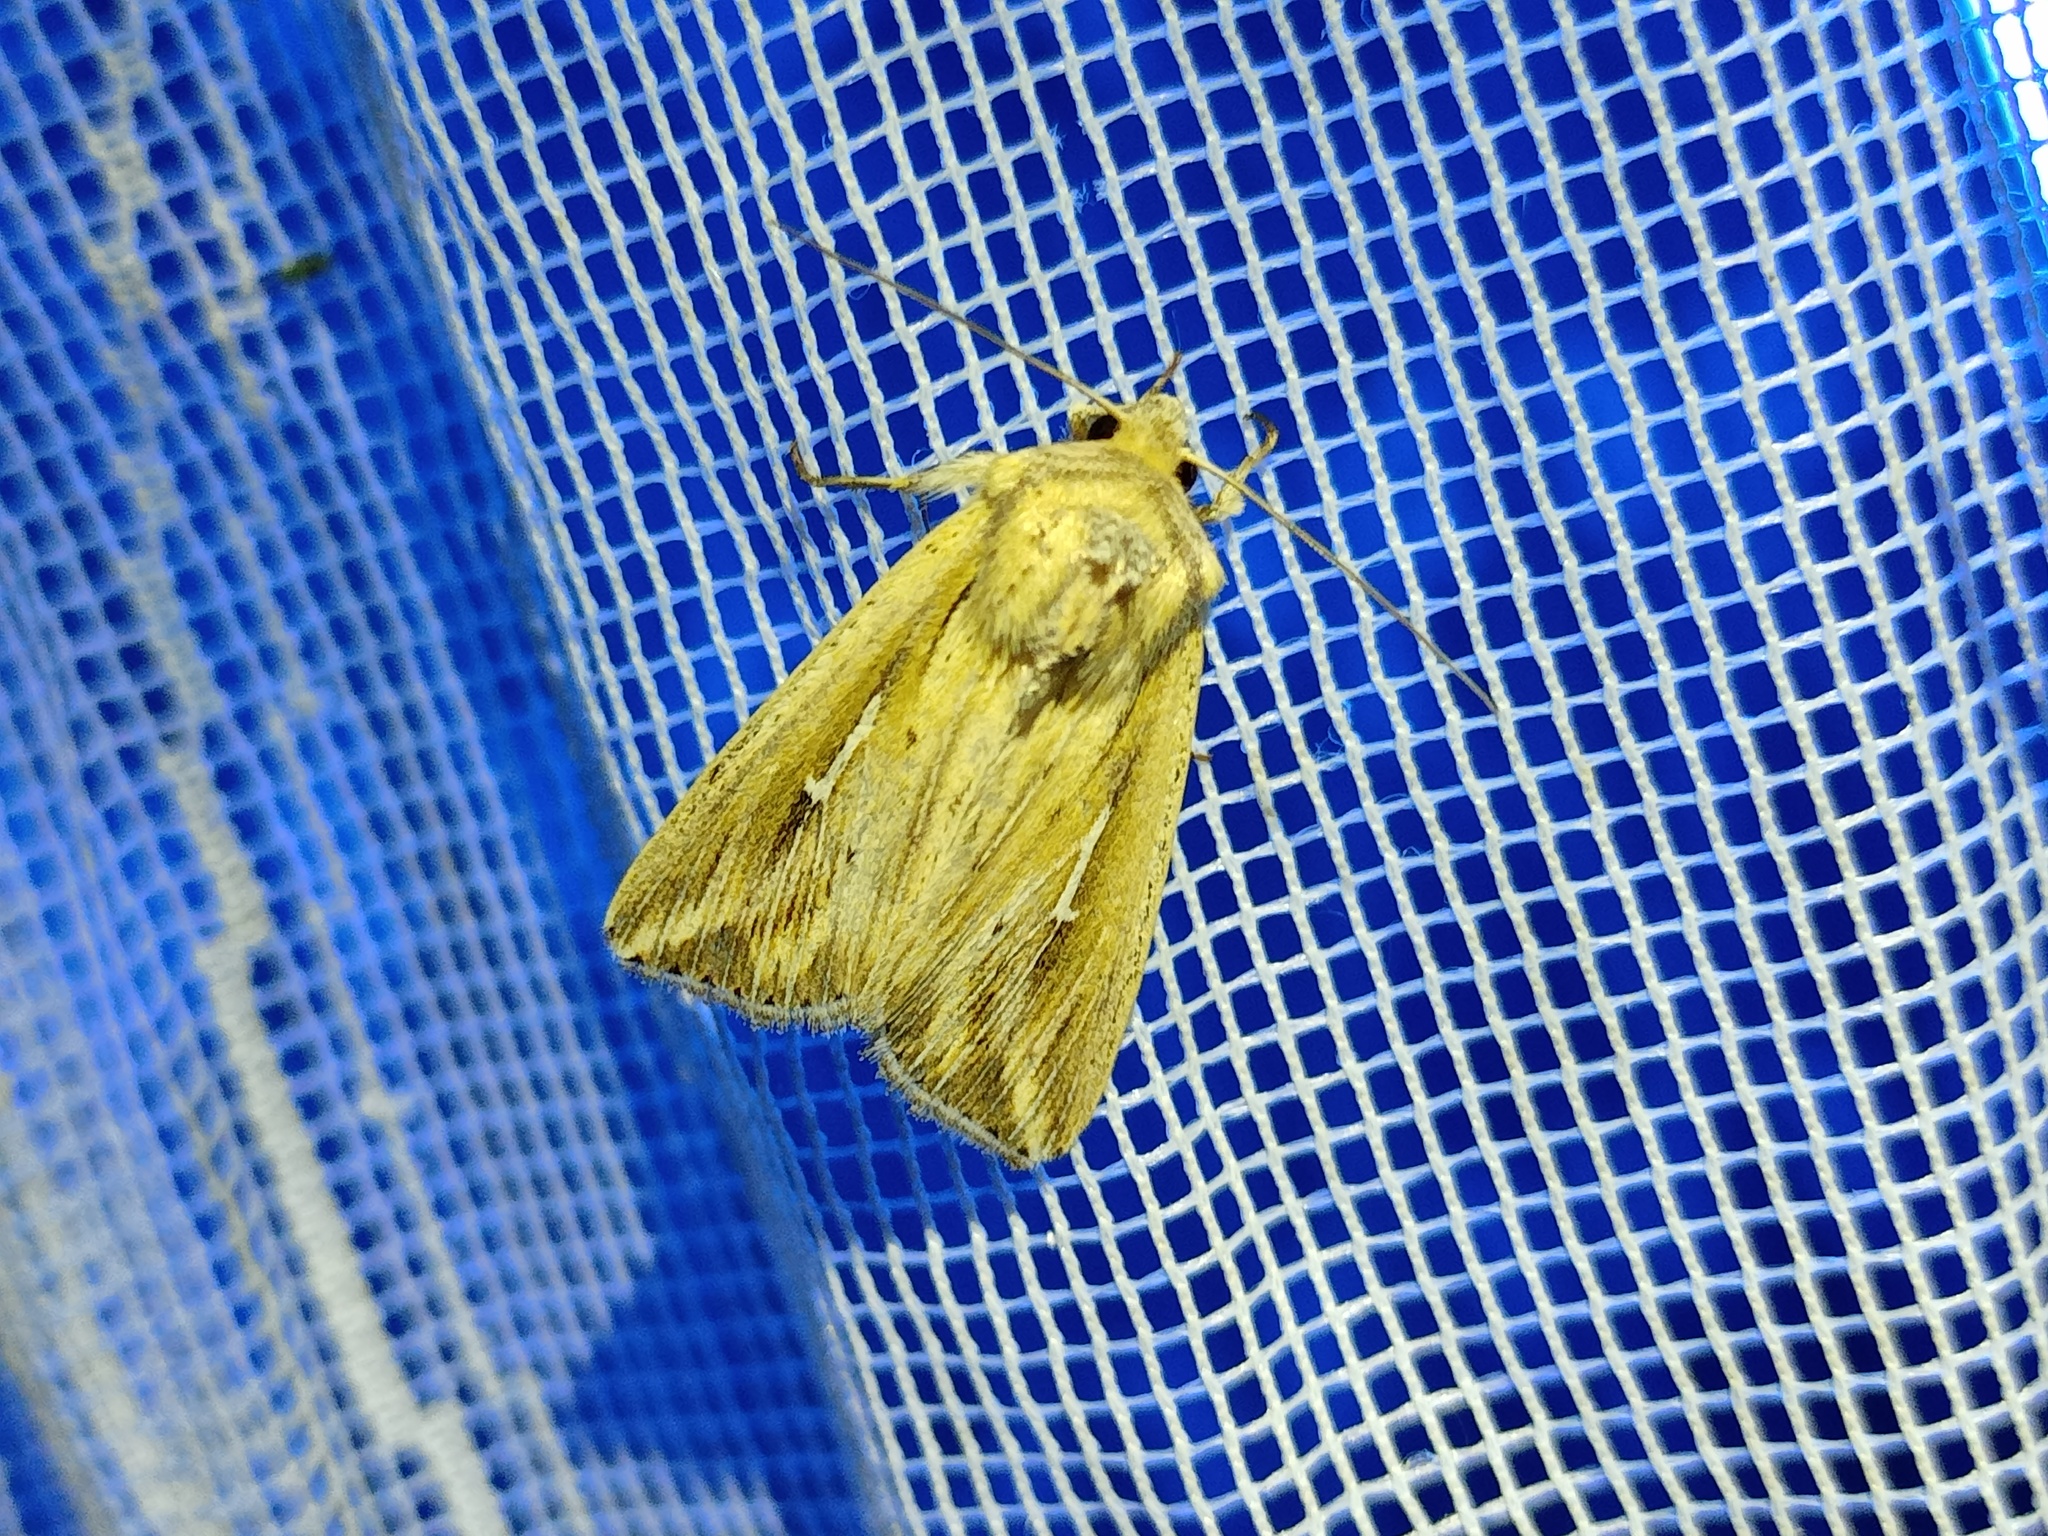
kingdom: Animalia
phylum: Arthropoda
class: Insecta
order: Lepidoptera
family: Noctuidae
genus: Mythimna
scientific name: Mythimna l-album
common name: L-album wainscot
